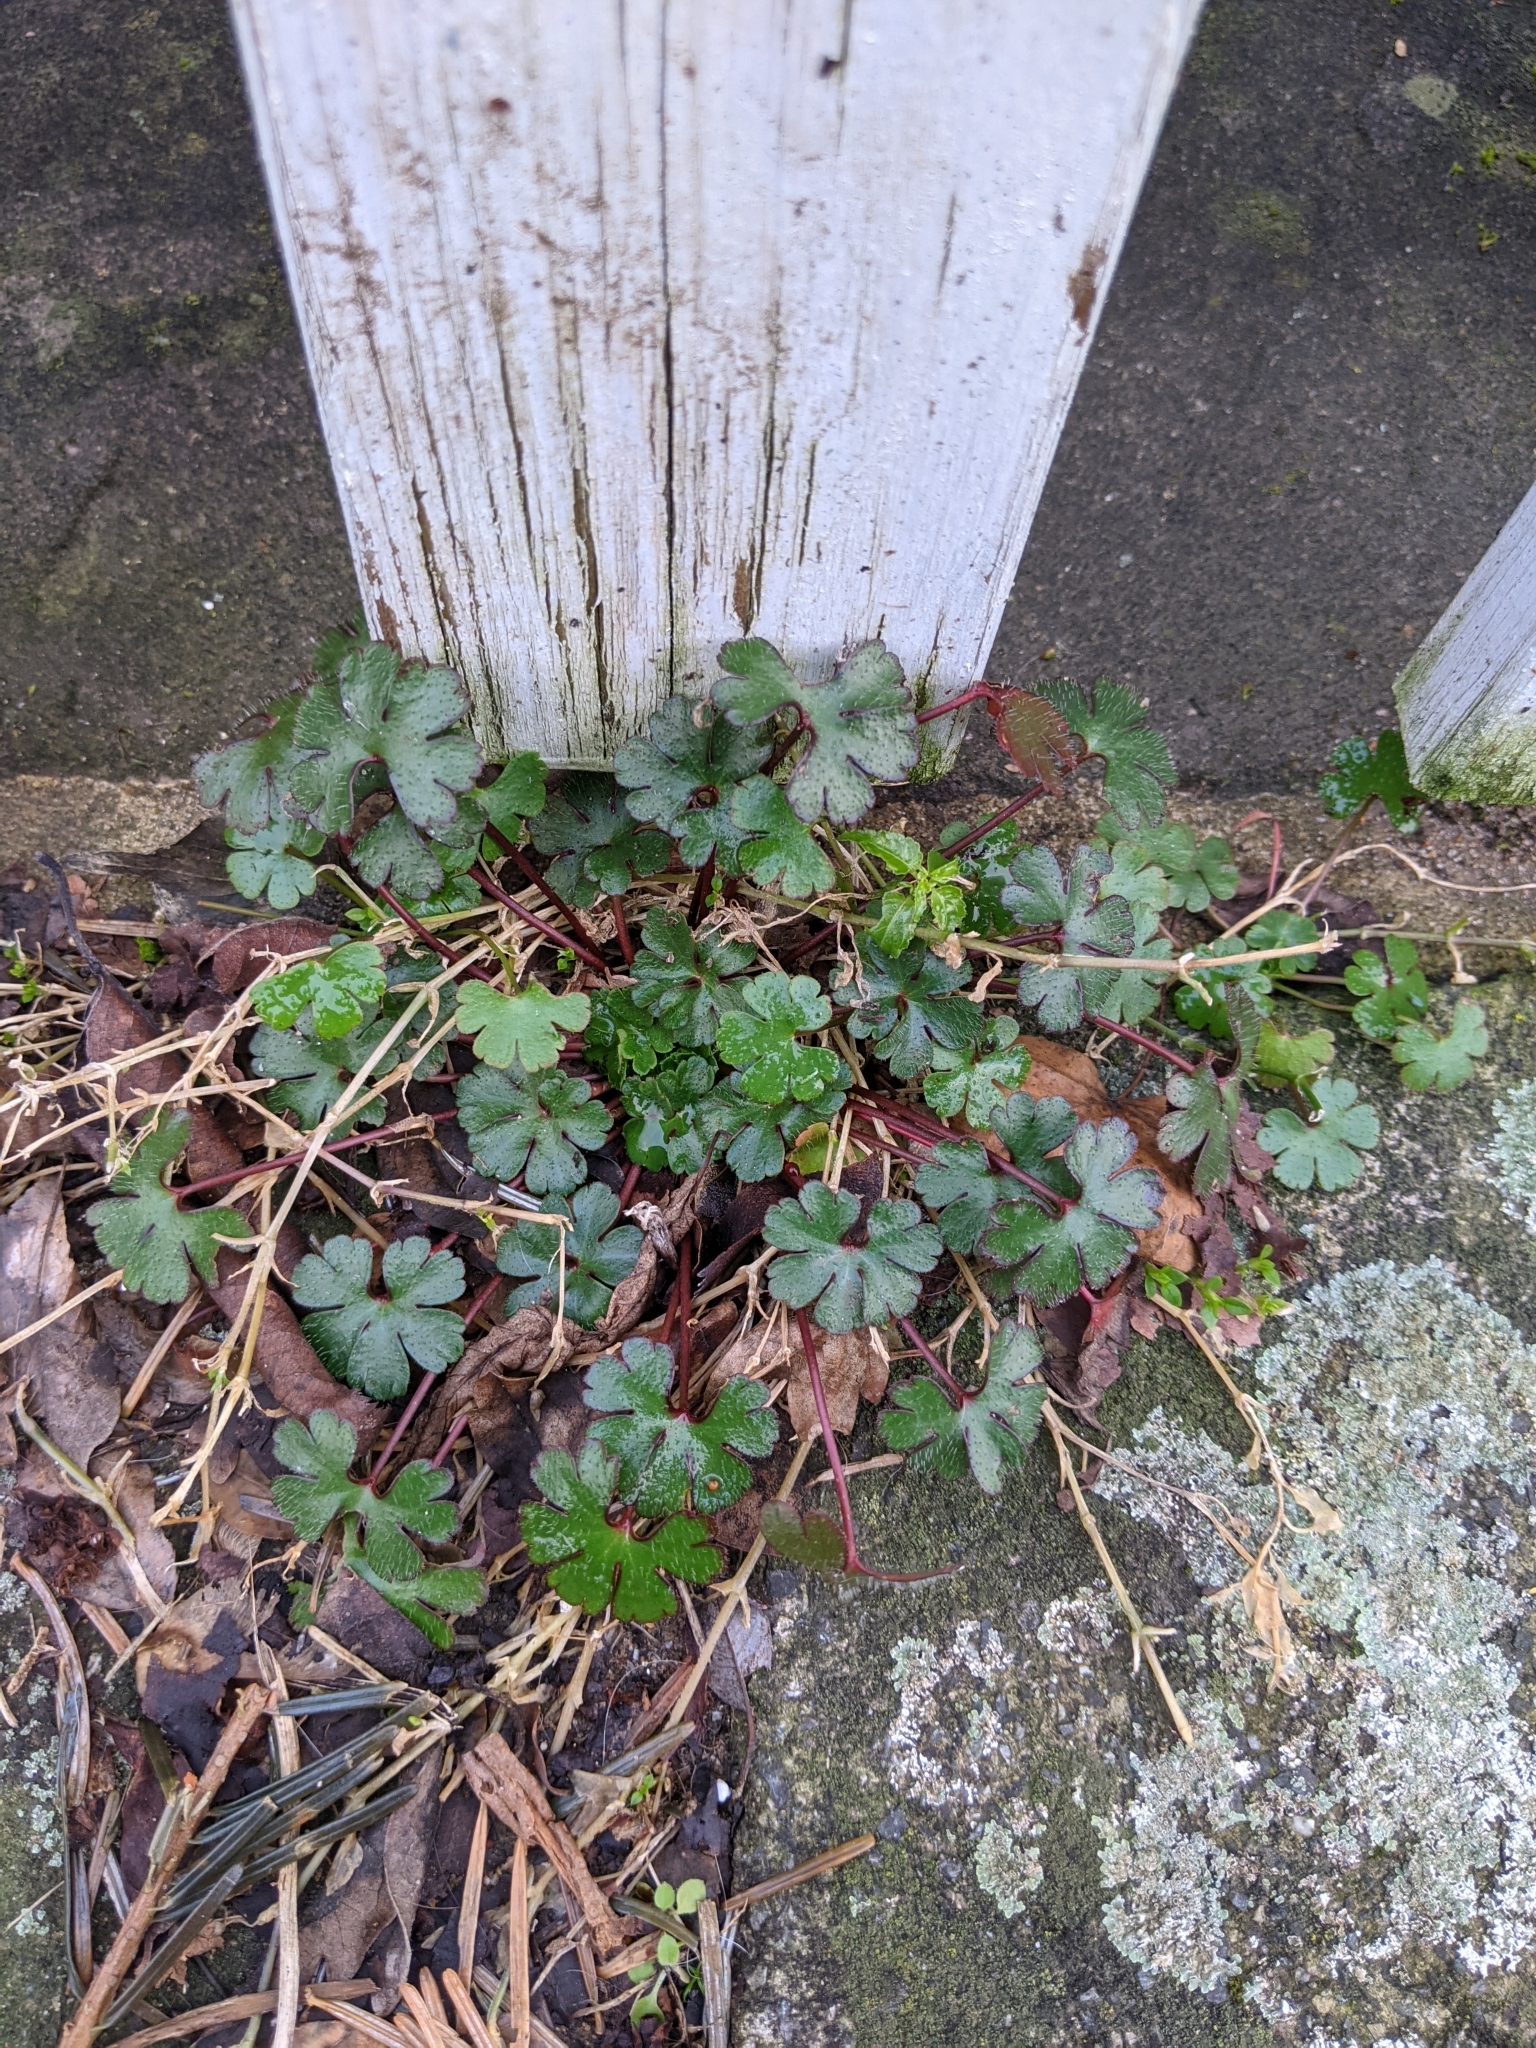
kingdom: Plantae
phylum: Tracheophyta
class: Magnoliopsida
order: Geraniales
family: Geraniaceae
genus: Geranium
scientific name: Geranium lucidum
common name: Shining crane's-bill
